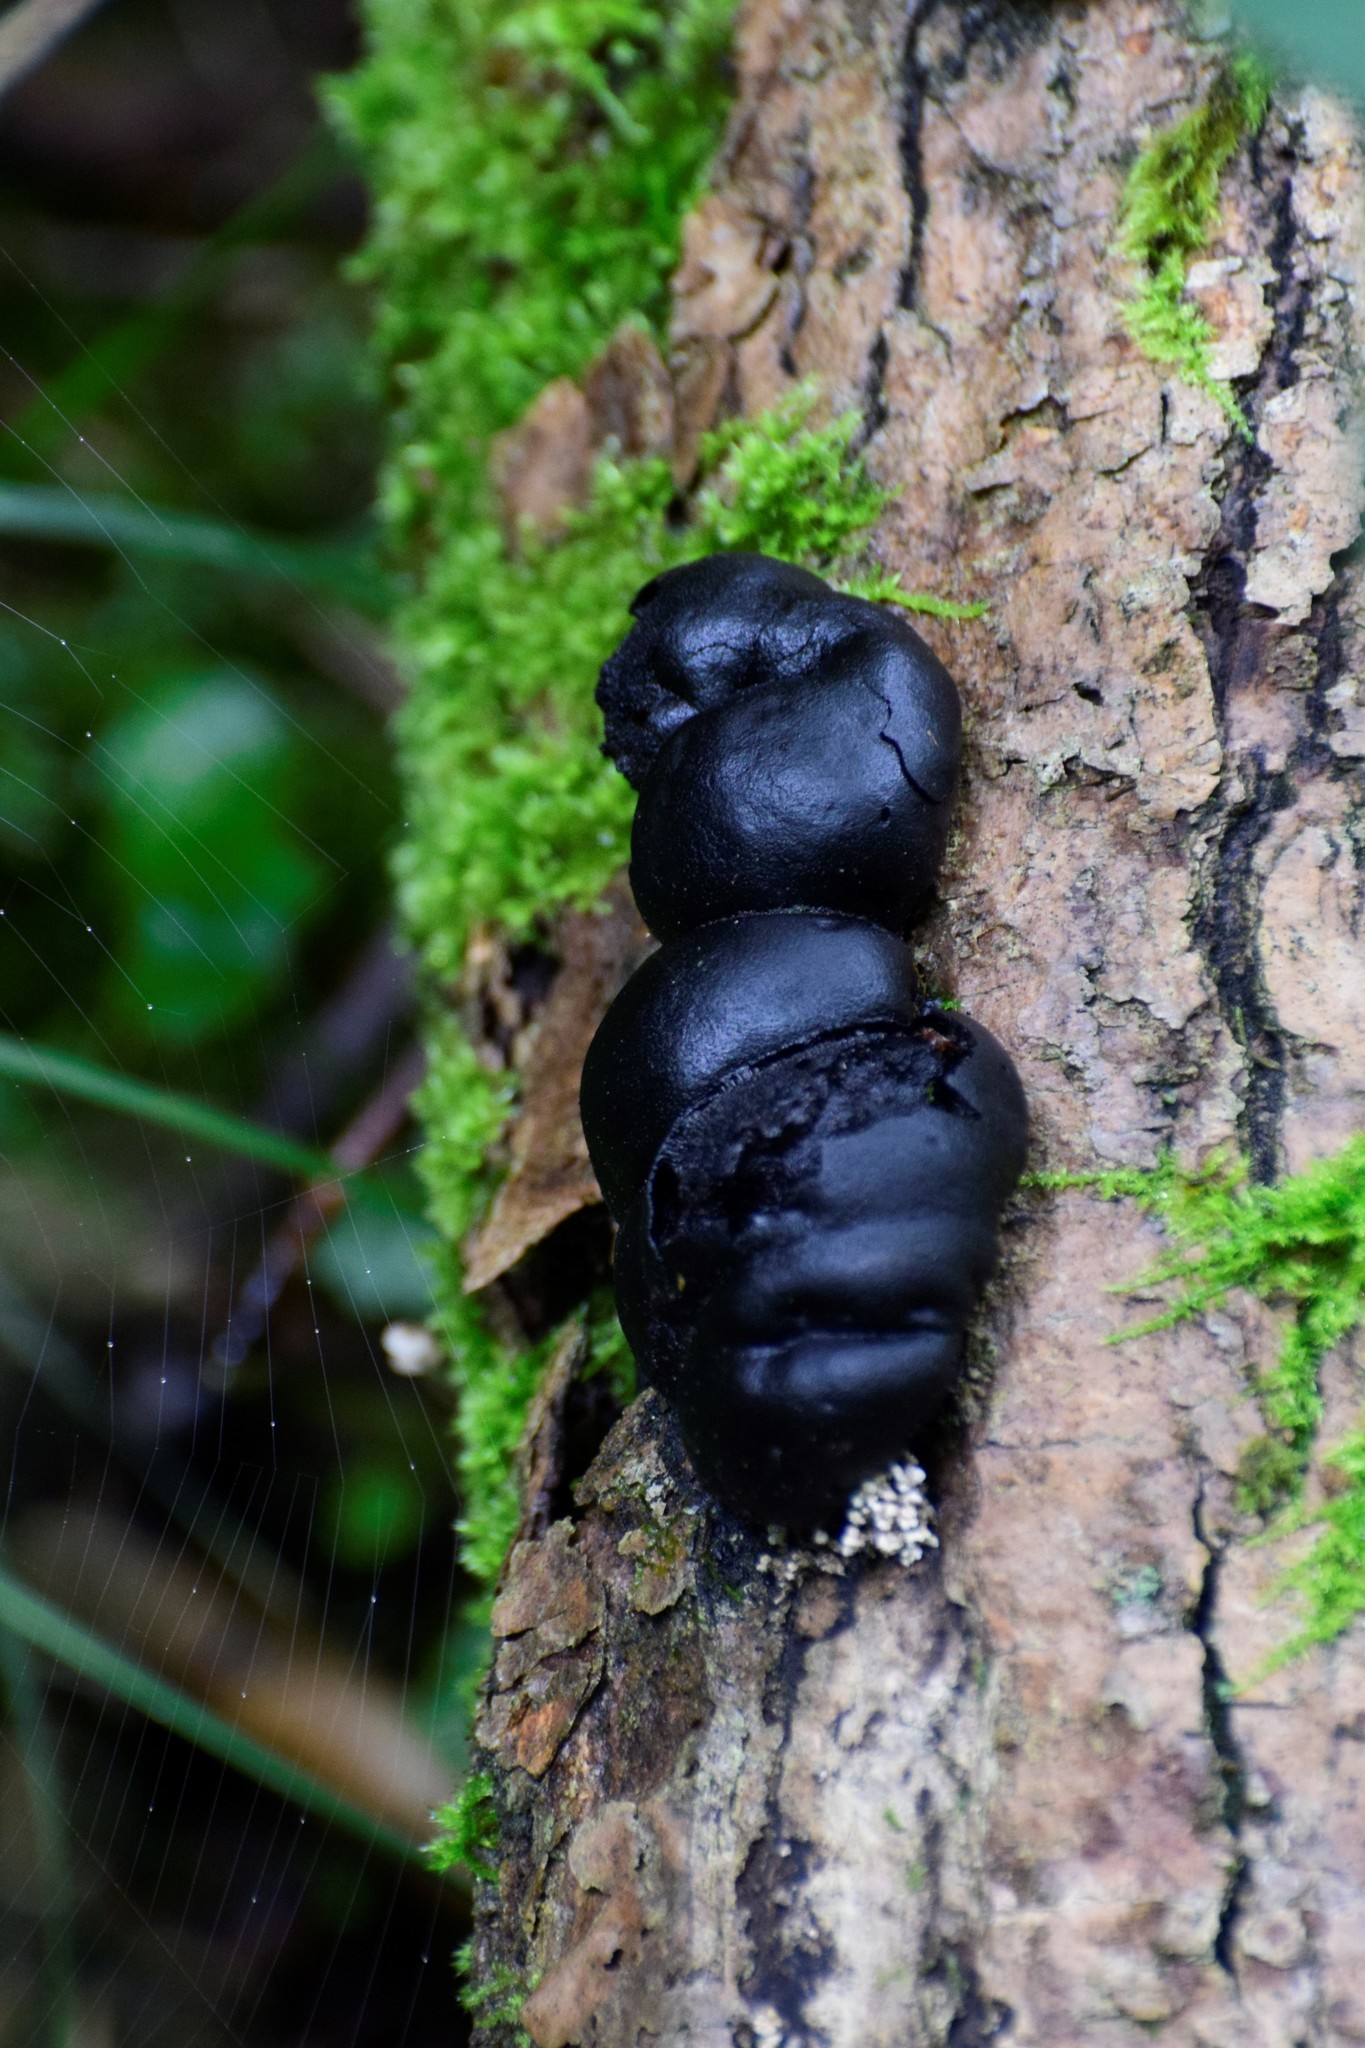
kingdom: Fungi
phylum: Ascomycota
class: Sordariomycetes
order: Xylariales
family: Hypoxylaceae
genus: Daldinia
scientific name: Daldinia concentrica
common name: Cramp balls
